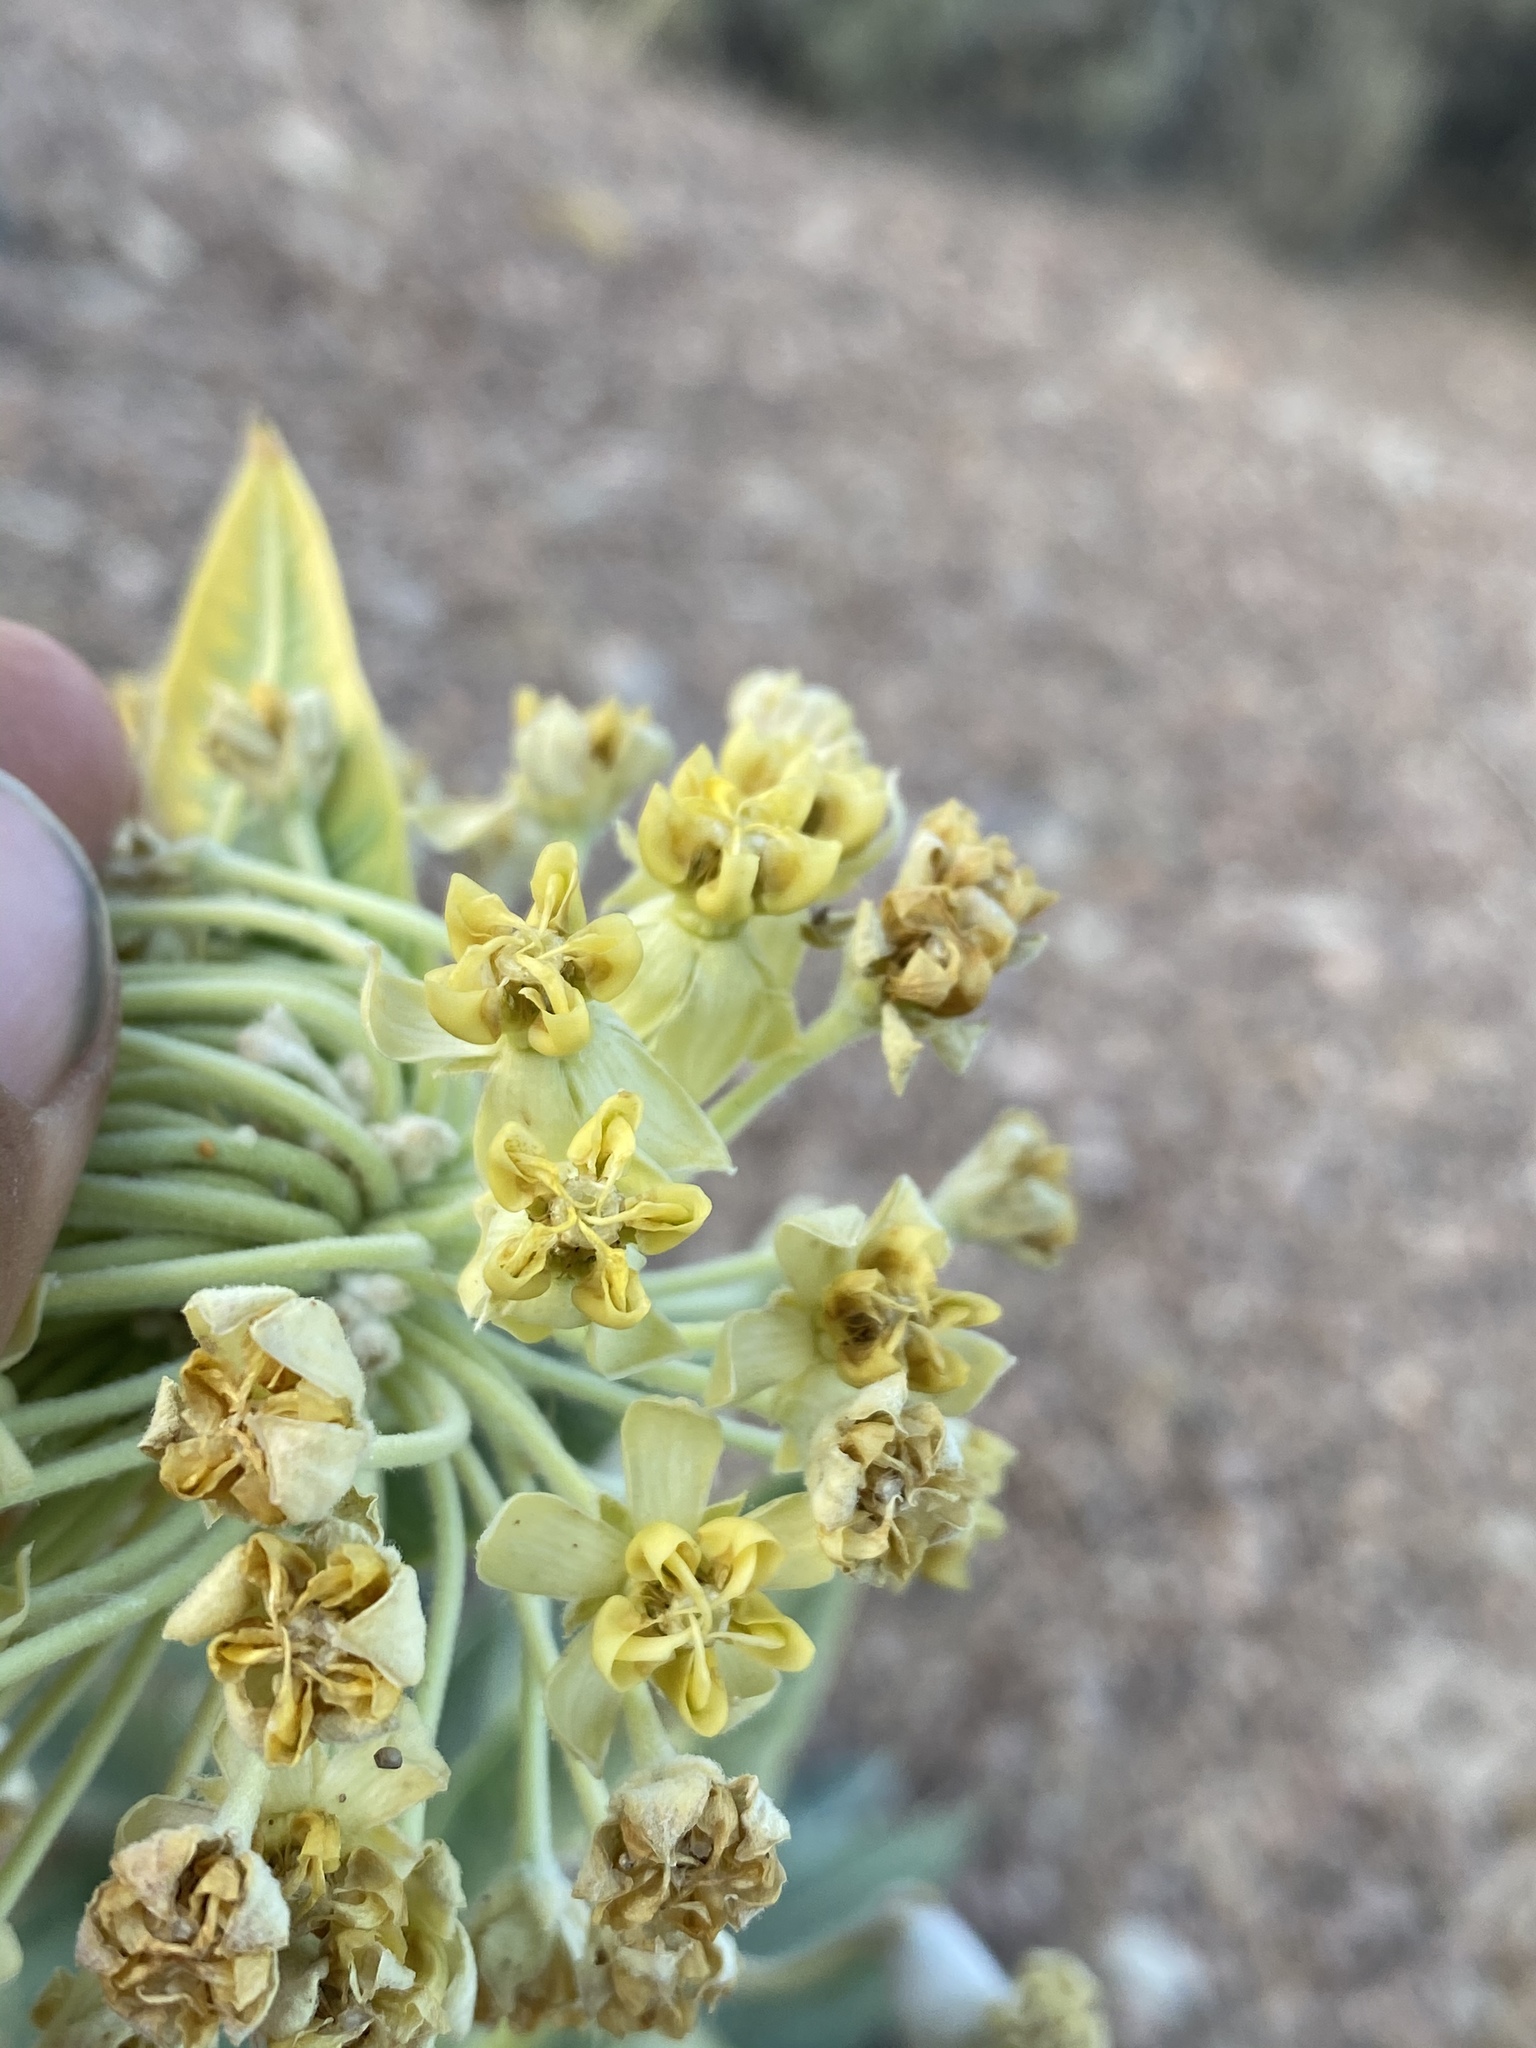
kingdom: Plantae
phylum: Tracheophyta
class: Magnoliopsida
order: Gentianales
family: Apocynaceae
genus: Asclepias
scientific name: Asclepias erosa
